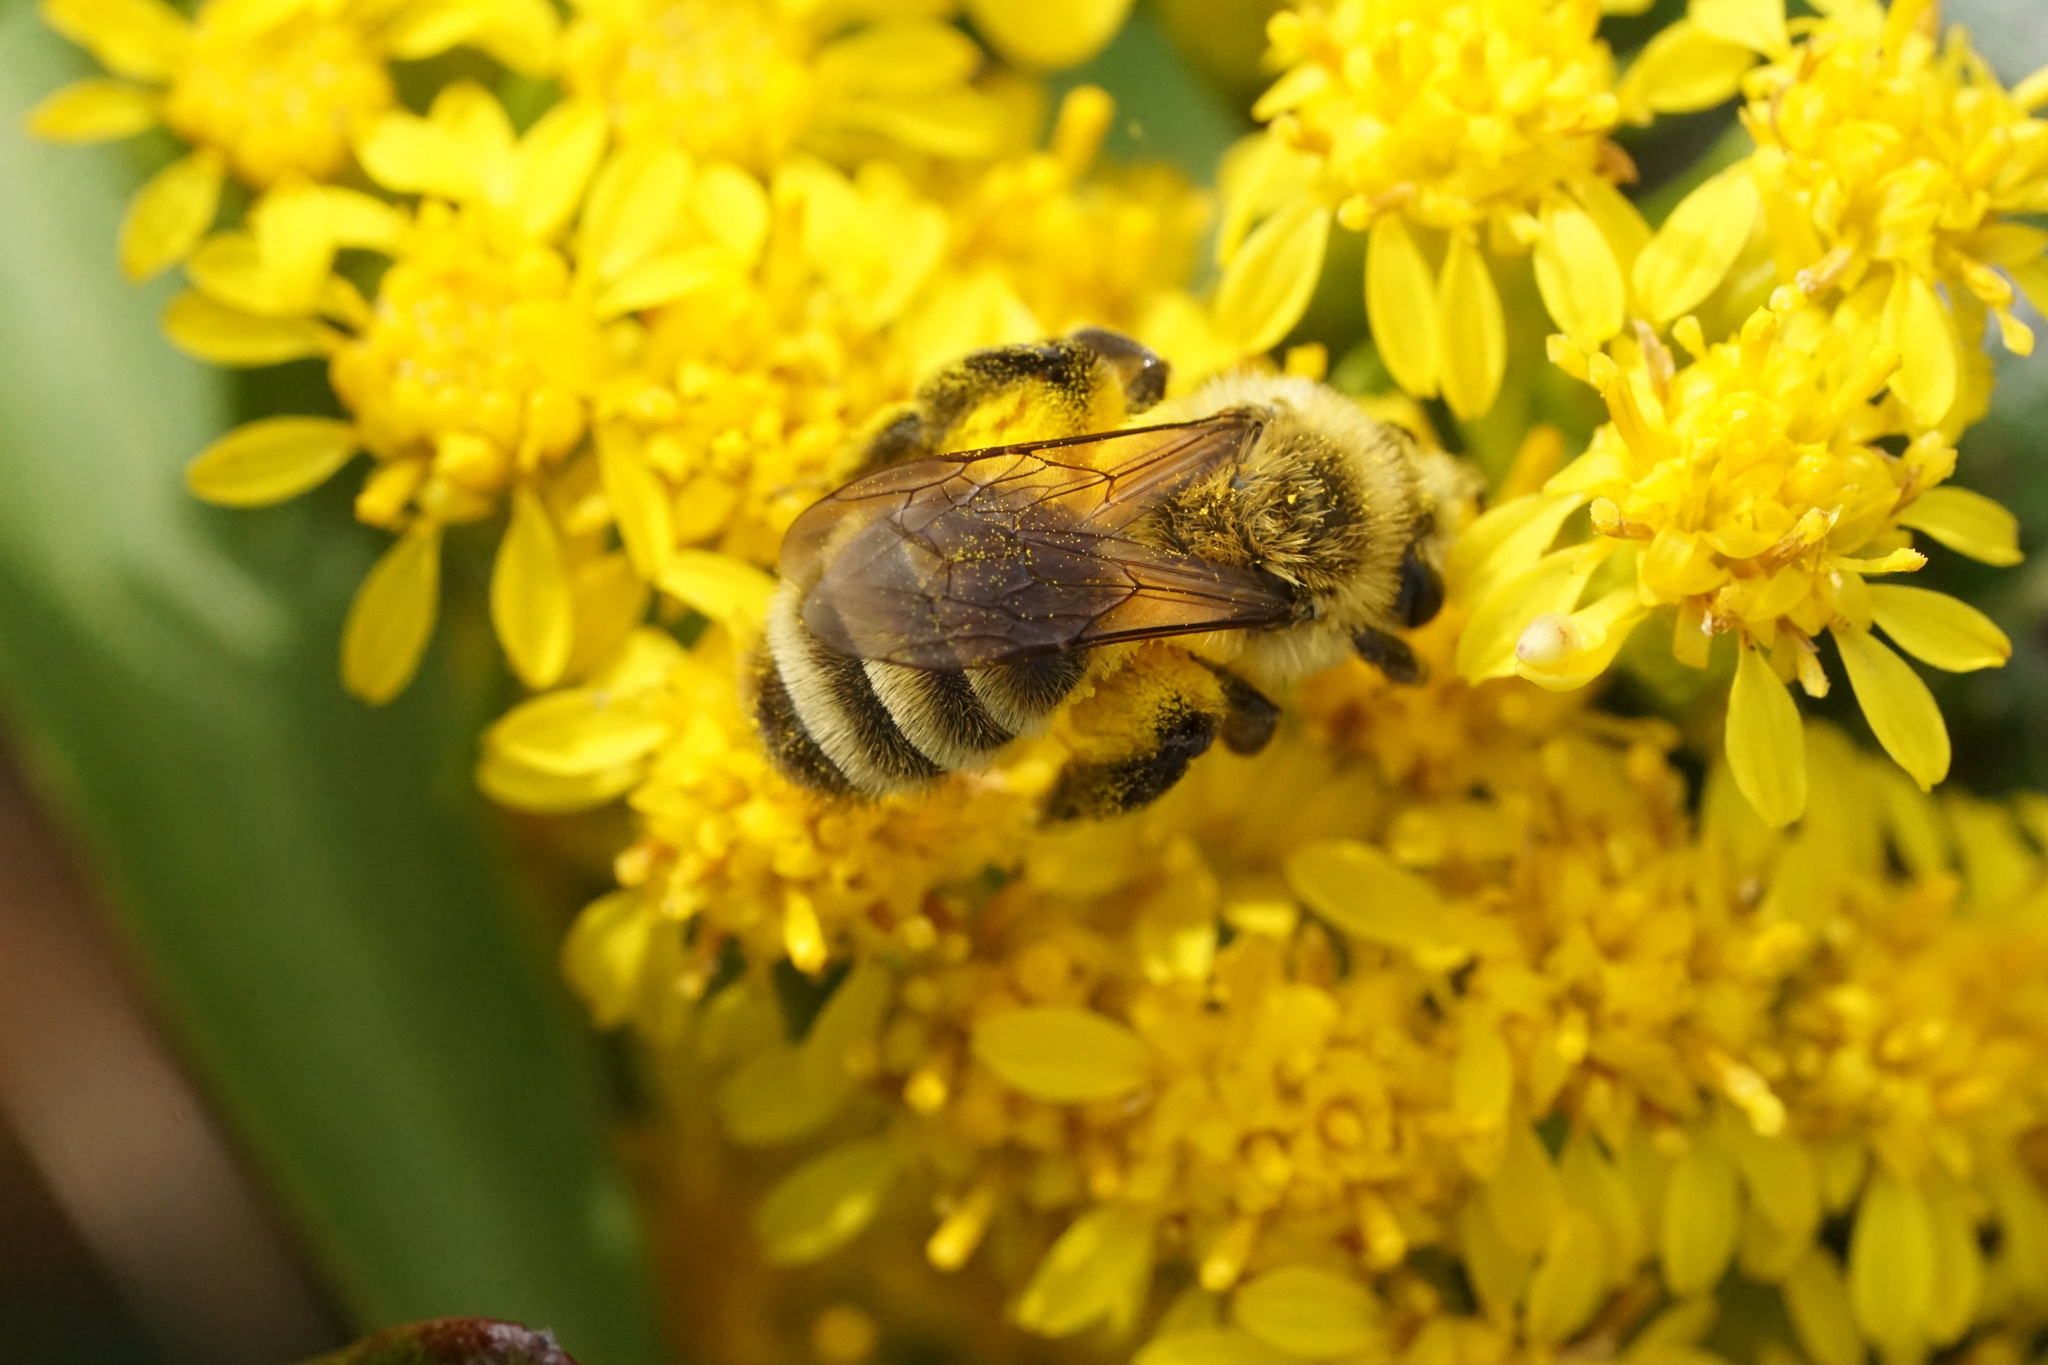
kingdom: Animalia
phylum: Arthropoda
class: Insecta
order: Hymenoptera
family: Andrenidae
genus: Andrena
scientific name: Andrena hirticincta
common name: Hairy-banded mining bee
